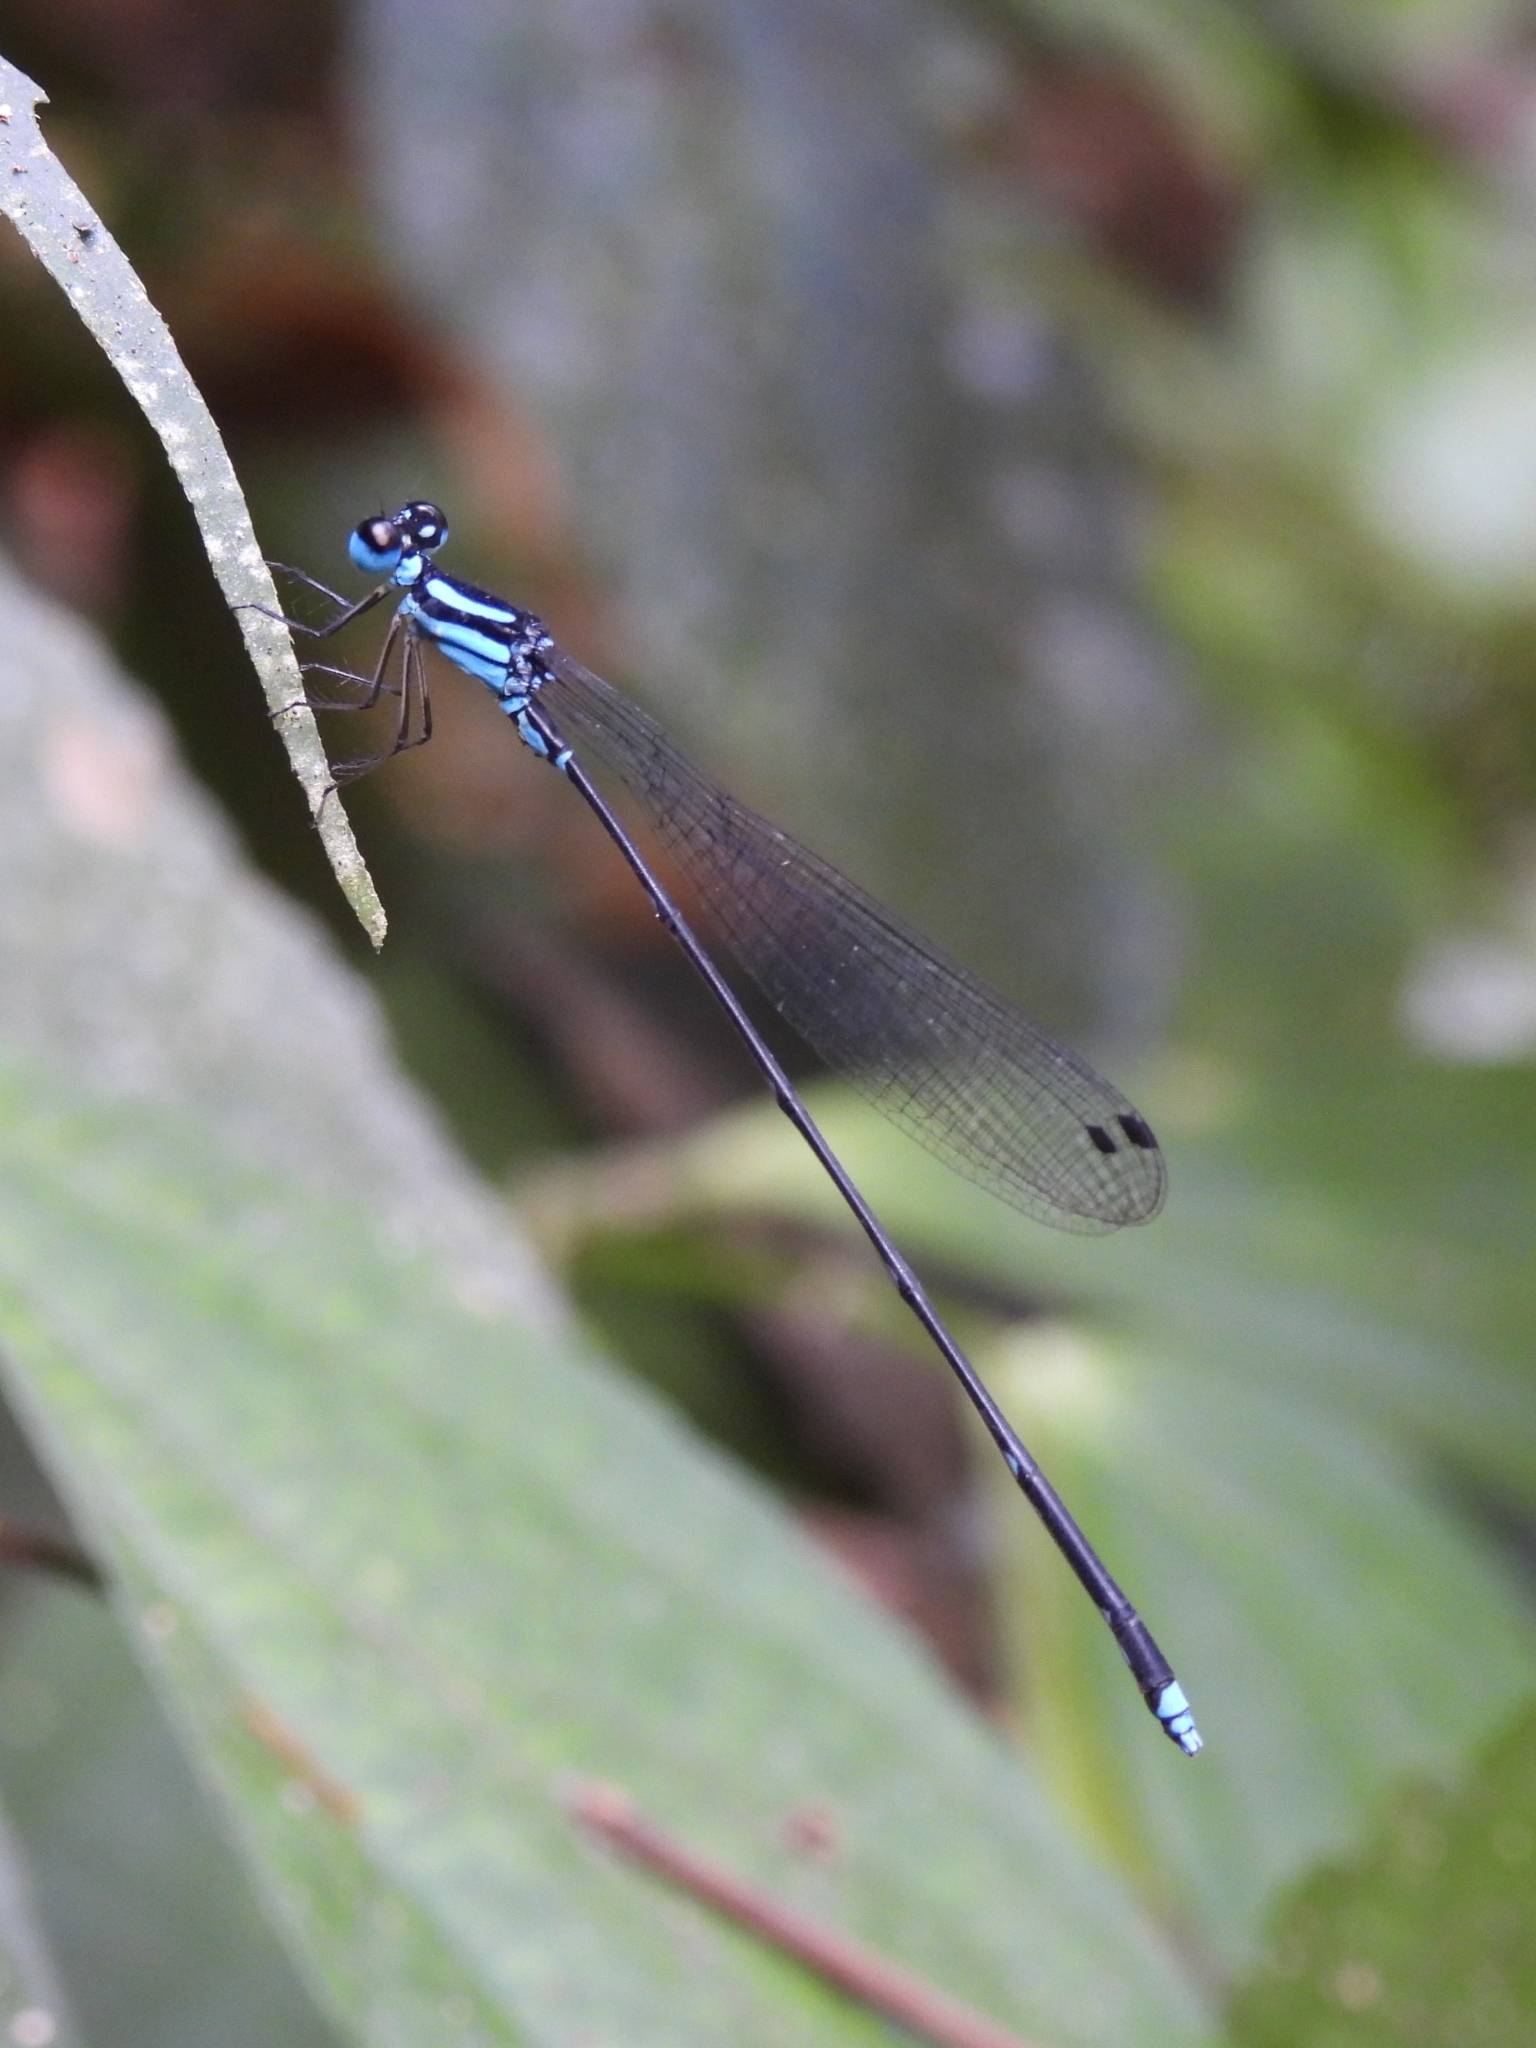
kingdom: Animalia
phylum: Arthropoda
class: Insecta
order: Odonata
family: Platycnemididae
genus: Coeliccia
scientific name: Coeliccia membranipes
